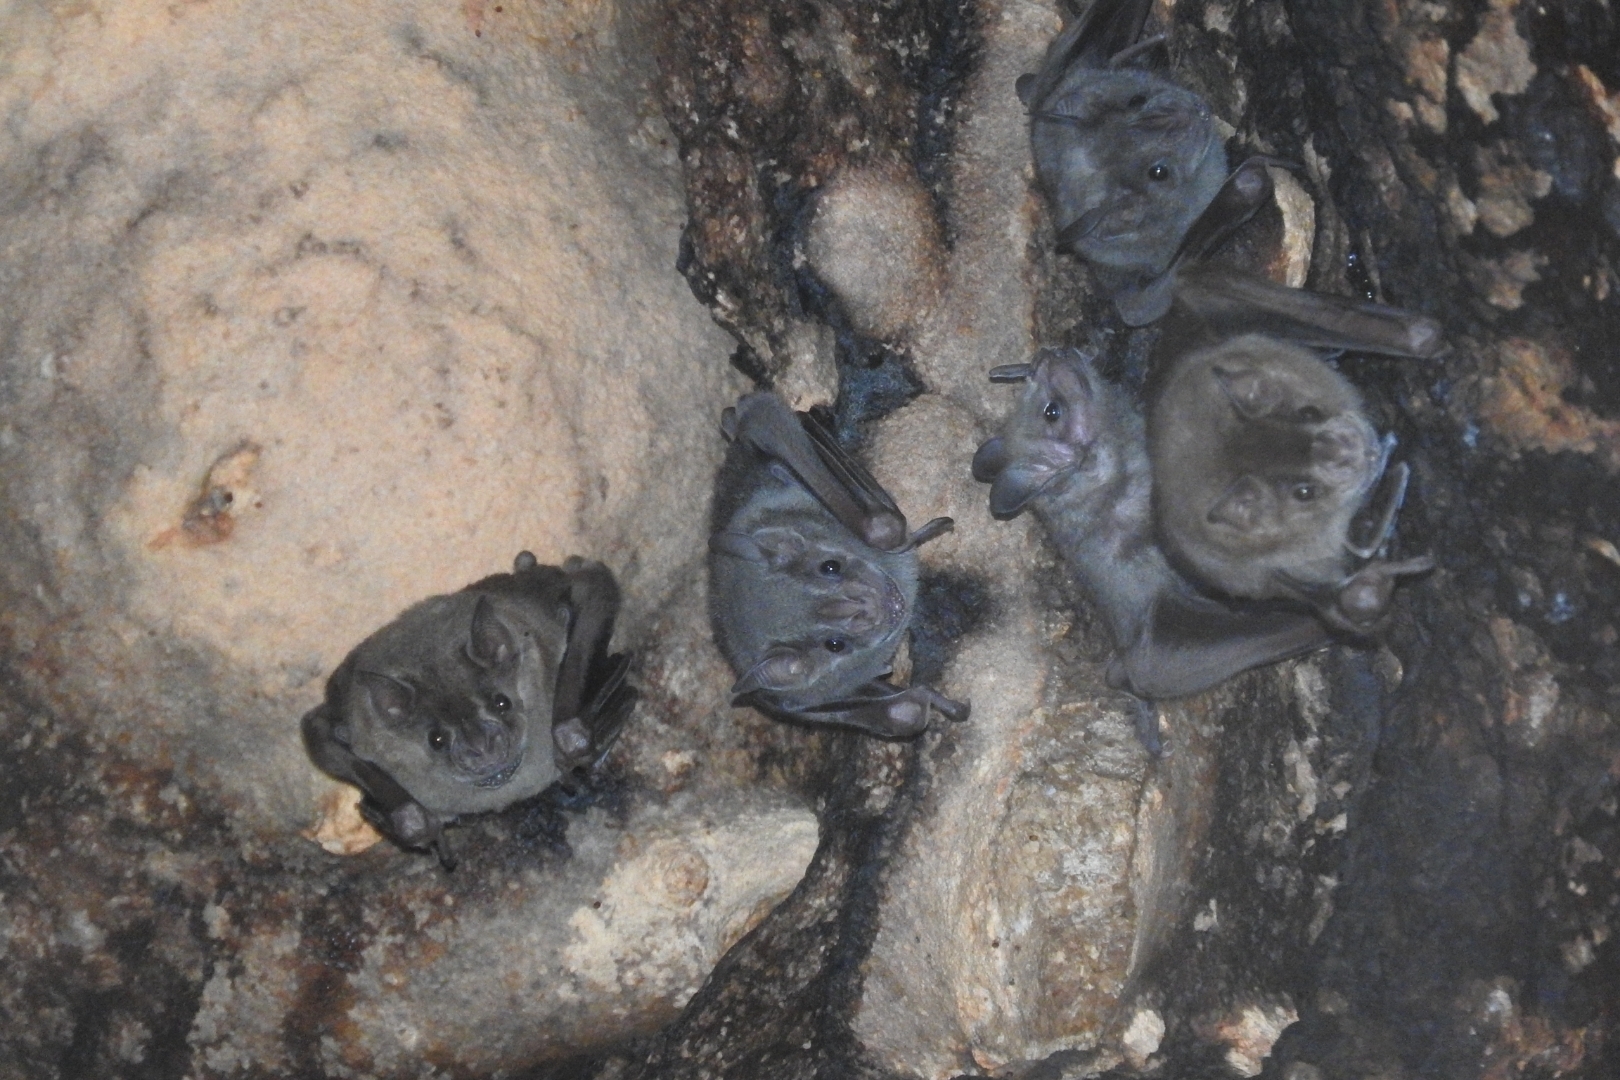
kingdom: Animalia
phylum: Chordata
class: Mammalia
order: Chiroptera
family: Phyllostomidae
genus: Artibeus
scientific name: Artibeus jamaicensis
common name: Jamaican fruit-eating bat
